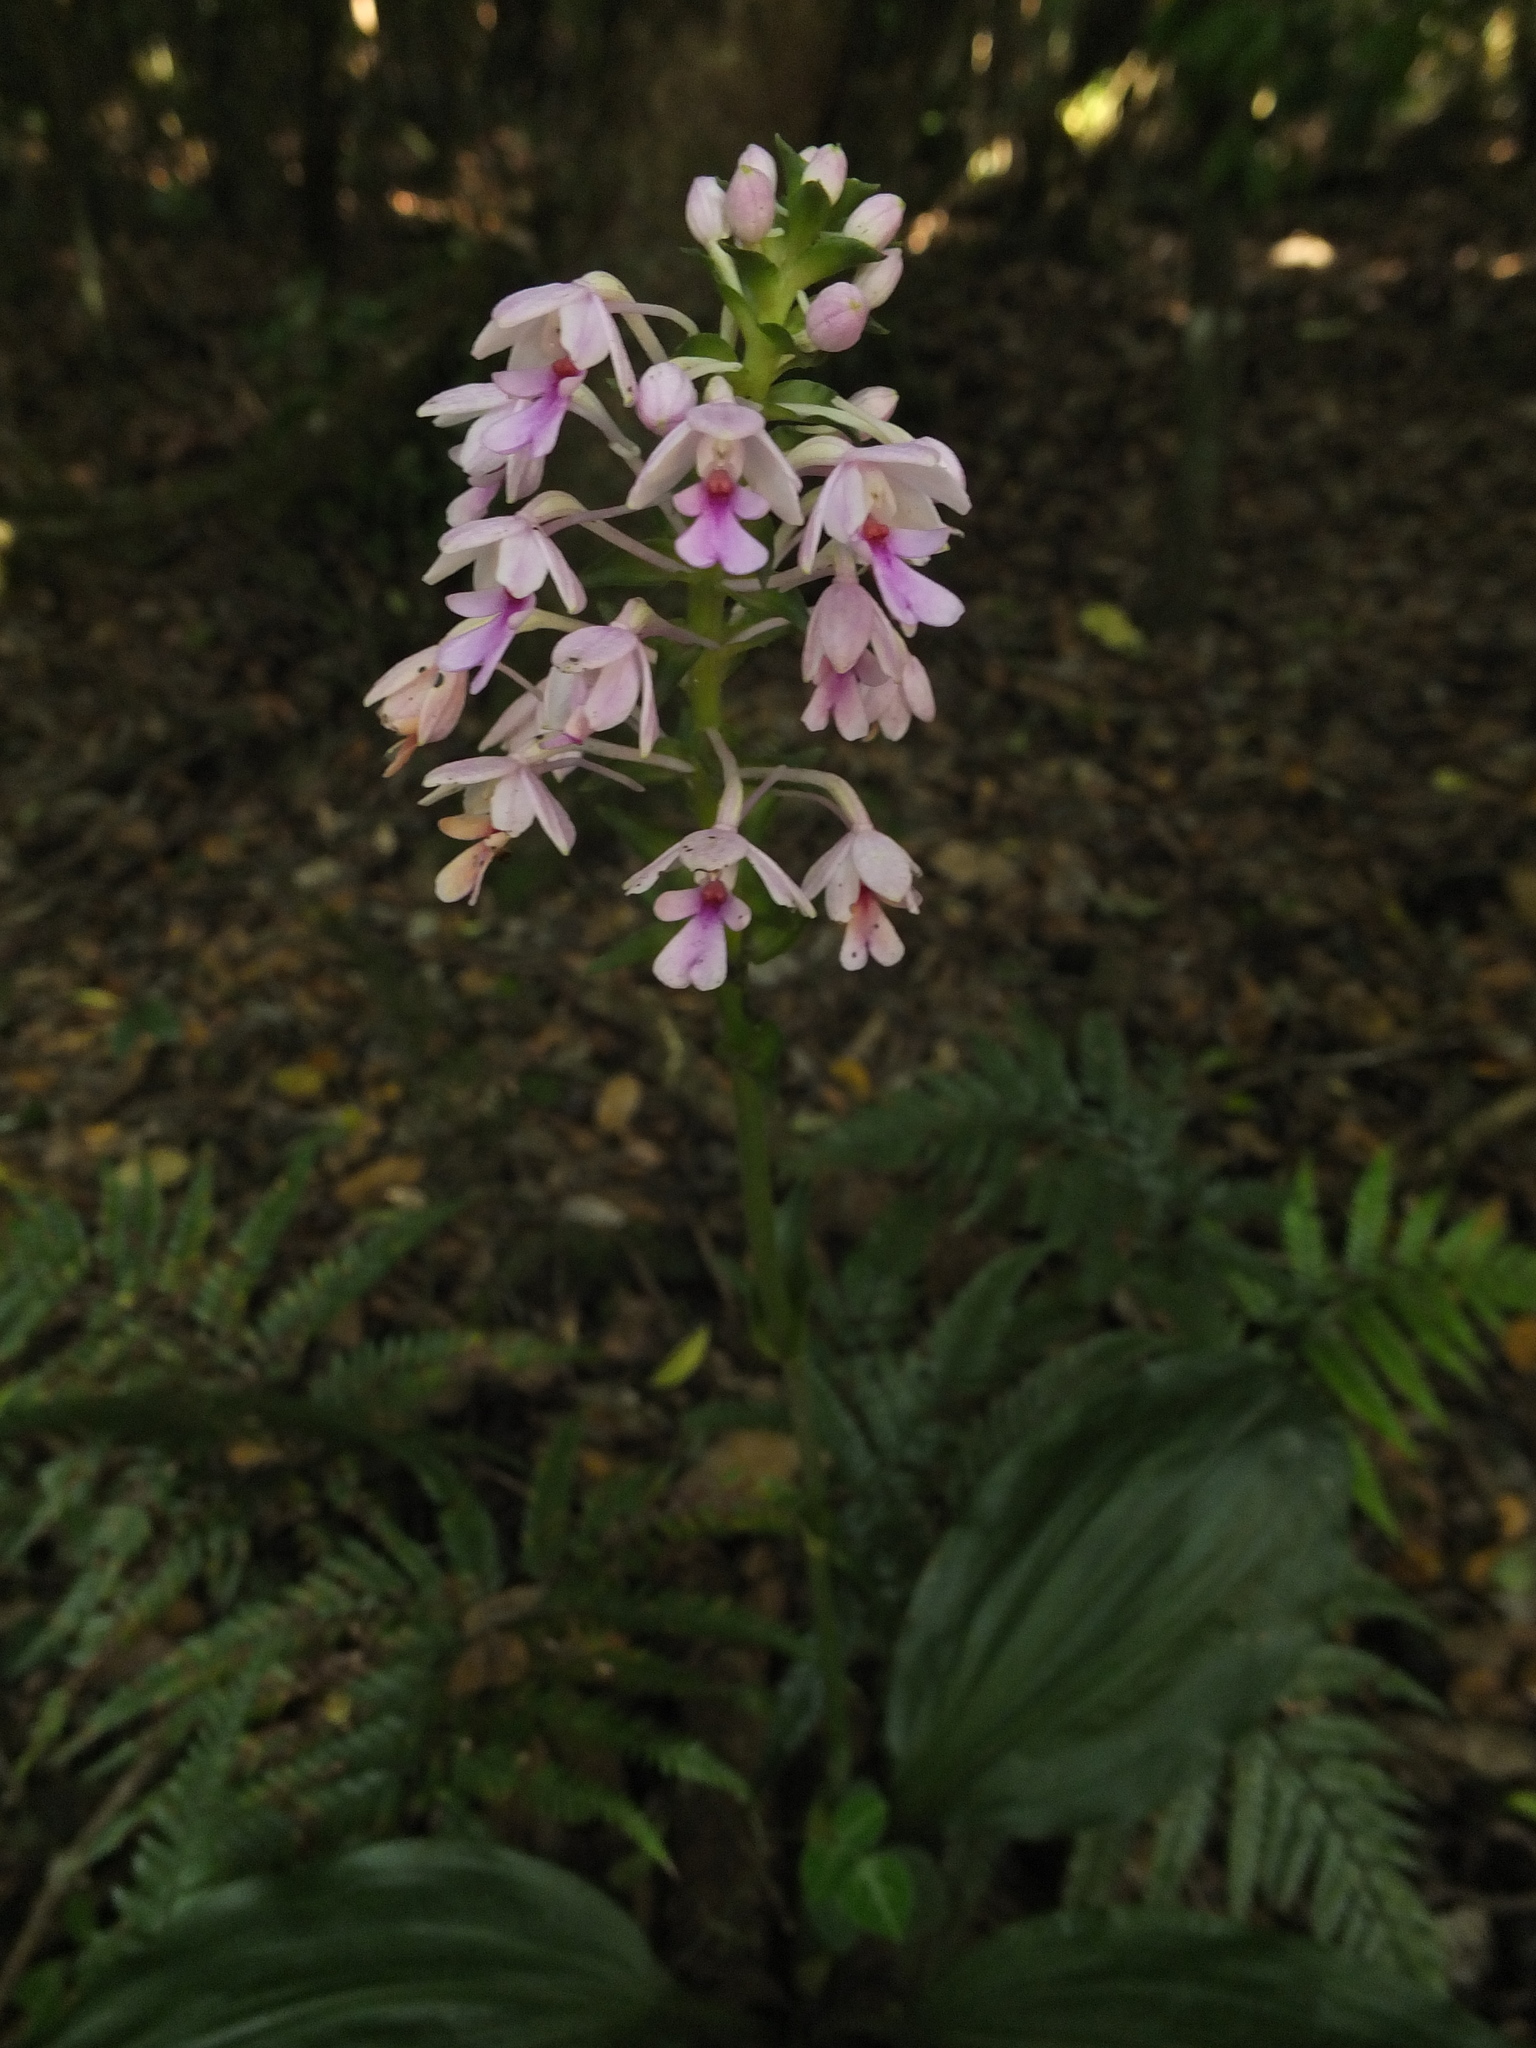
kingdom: Plantae
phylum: Tracheophyta
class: Liliopsida
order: Asparagales
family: Orchidaceae
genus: Calanthe
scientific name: Calanthe masuca
